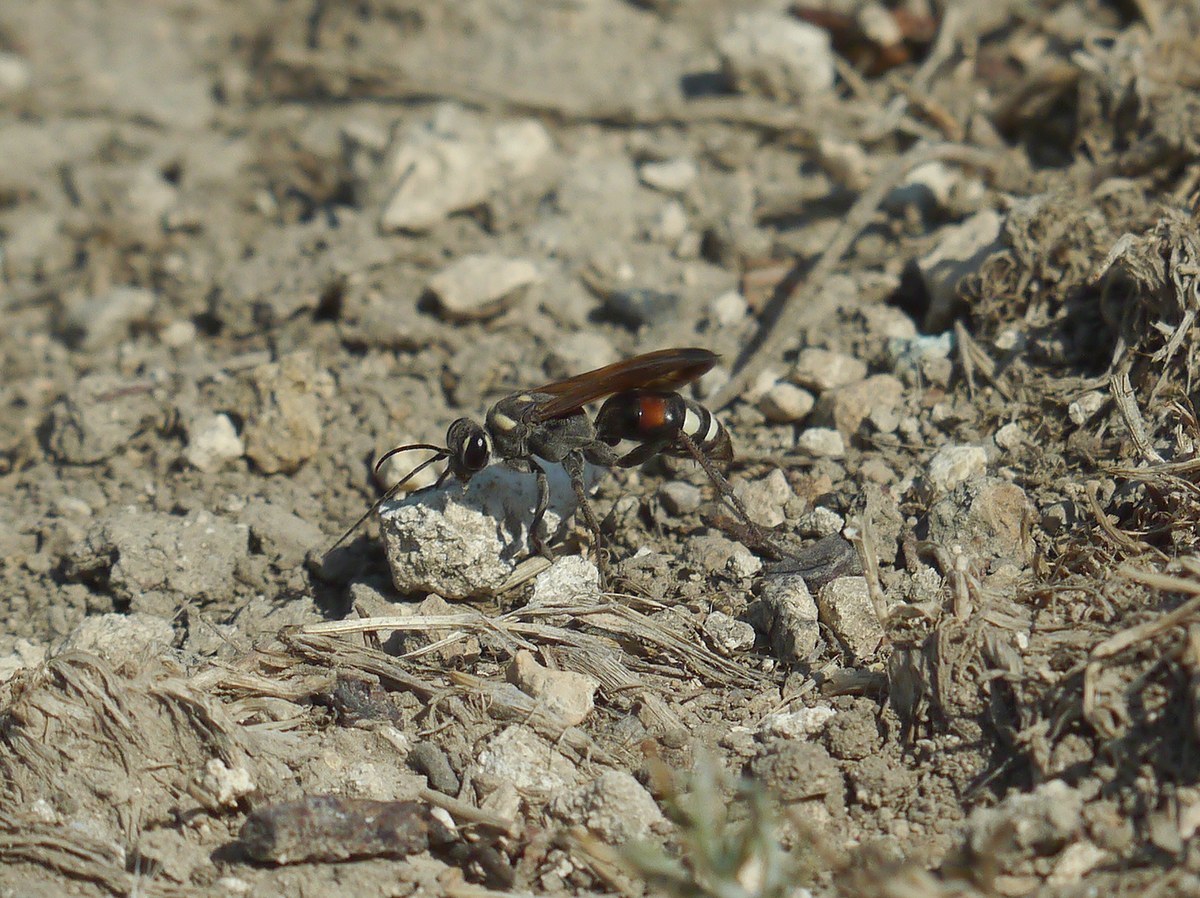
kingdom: Animalia
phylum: Arthropoda
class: Insecta
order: Hymenoptera
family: Pompilidae
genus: Cryptocheilus
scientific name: Cryptocheilus egregius
